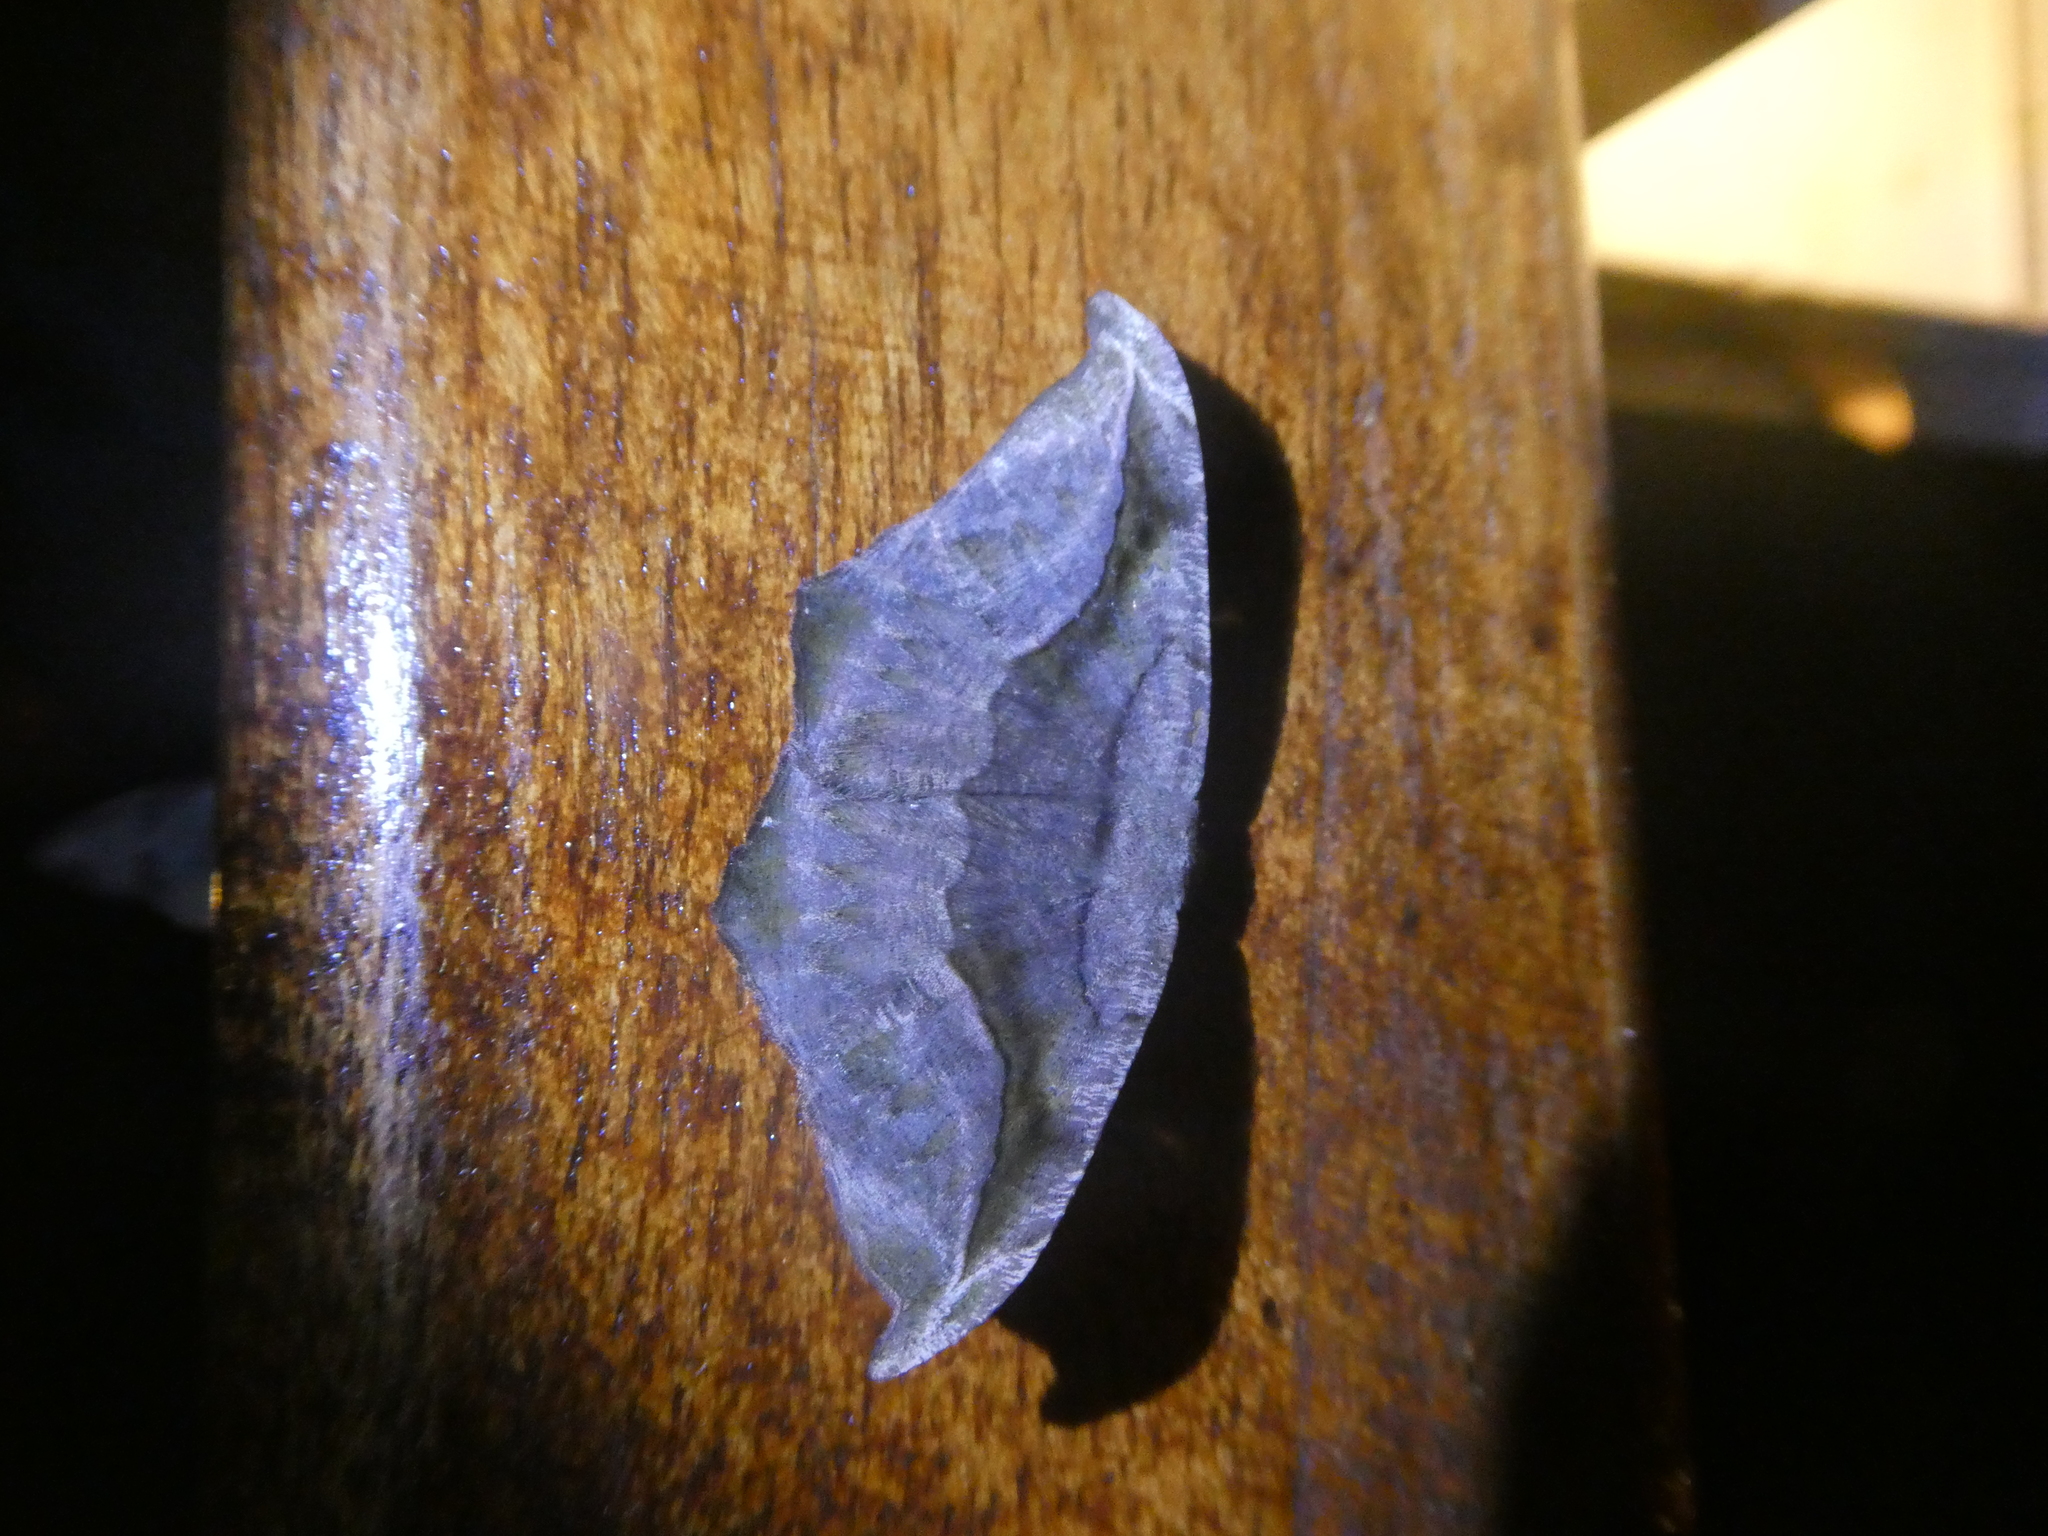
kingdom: Animalia
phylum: Arthropoda
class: Insecta
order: Lepidoptera
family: Geometridae
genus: Oxydia
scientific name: Oxydia scriptipennaria
